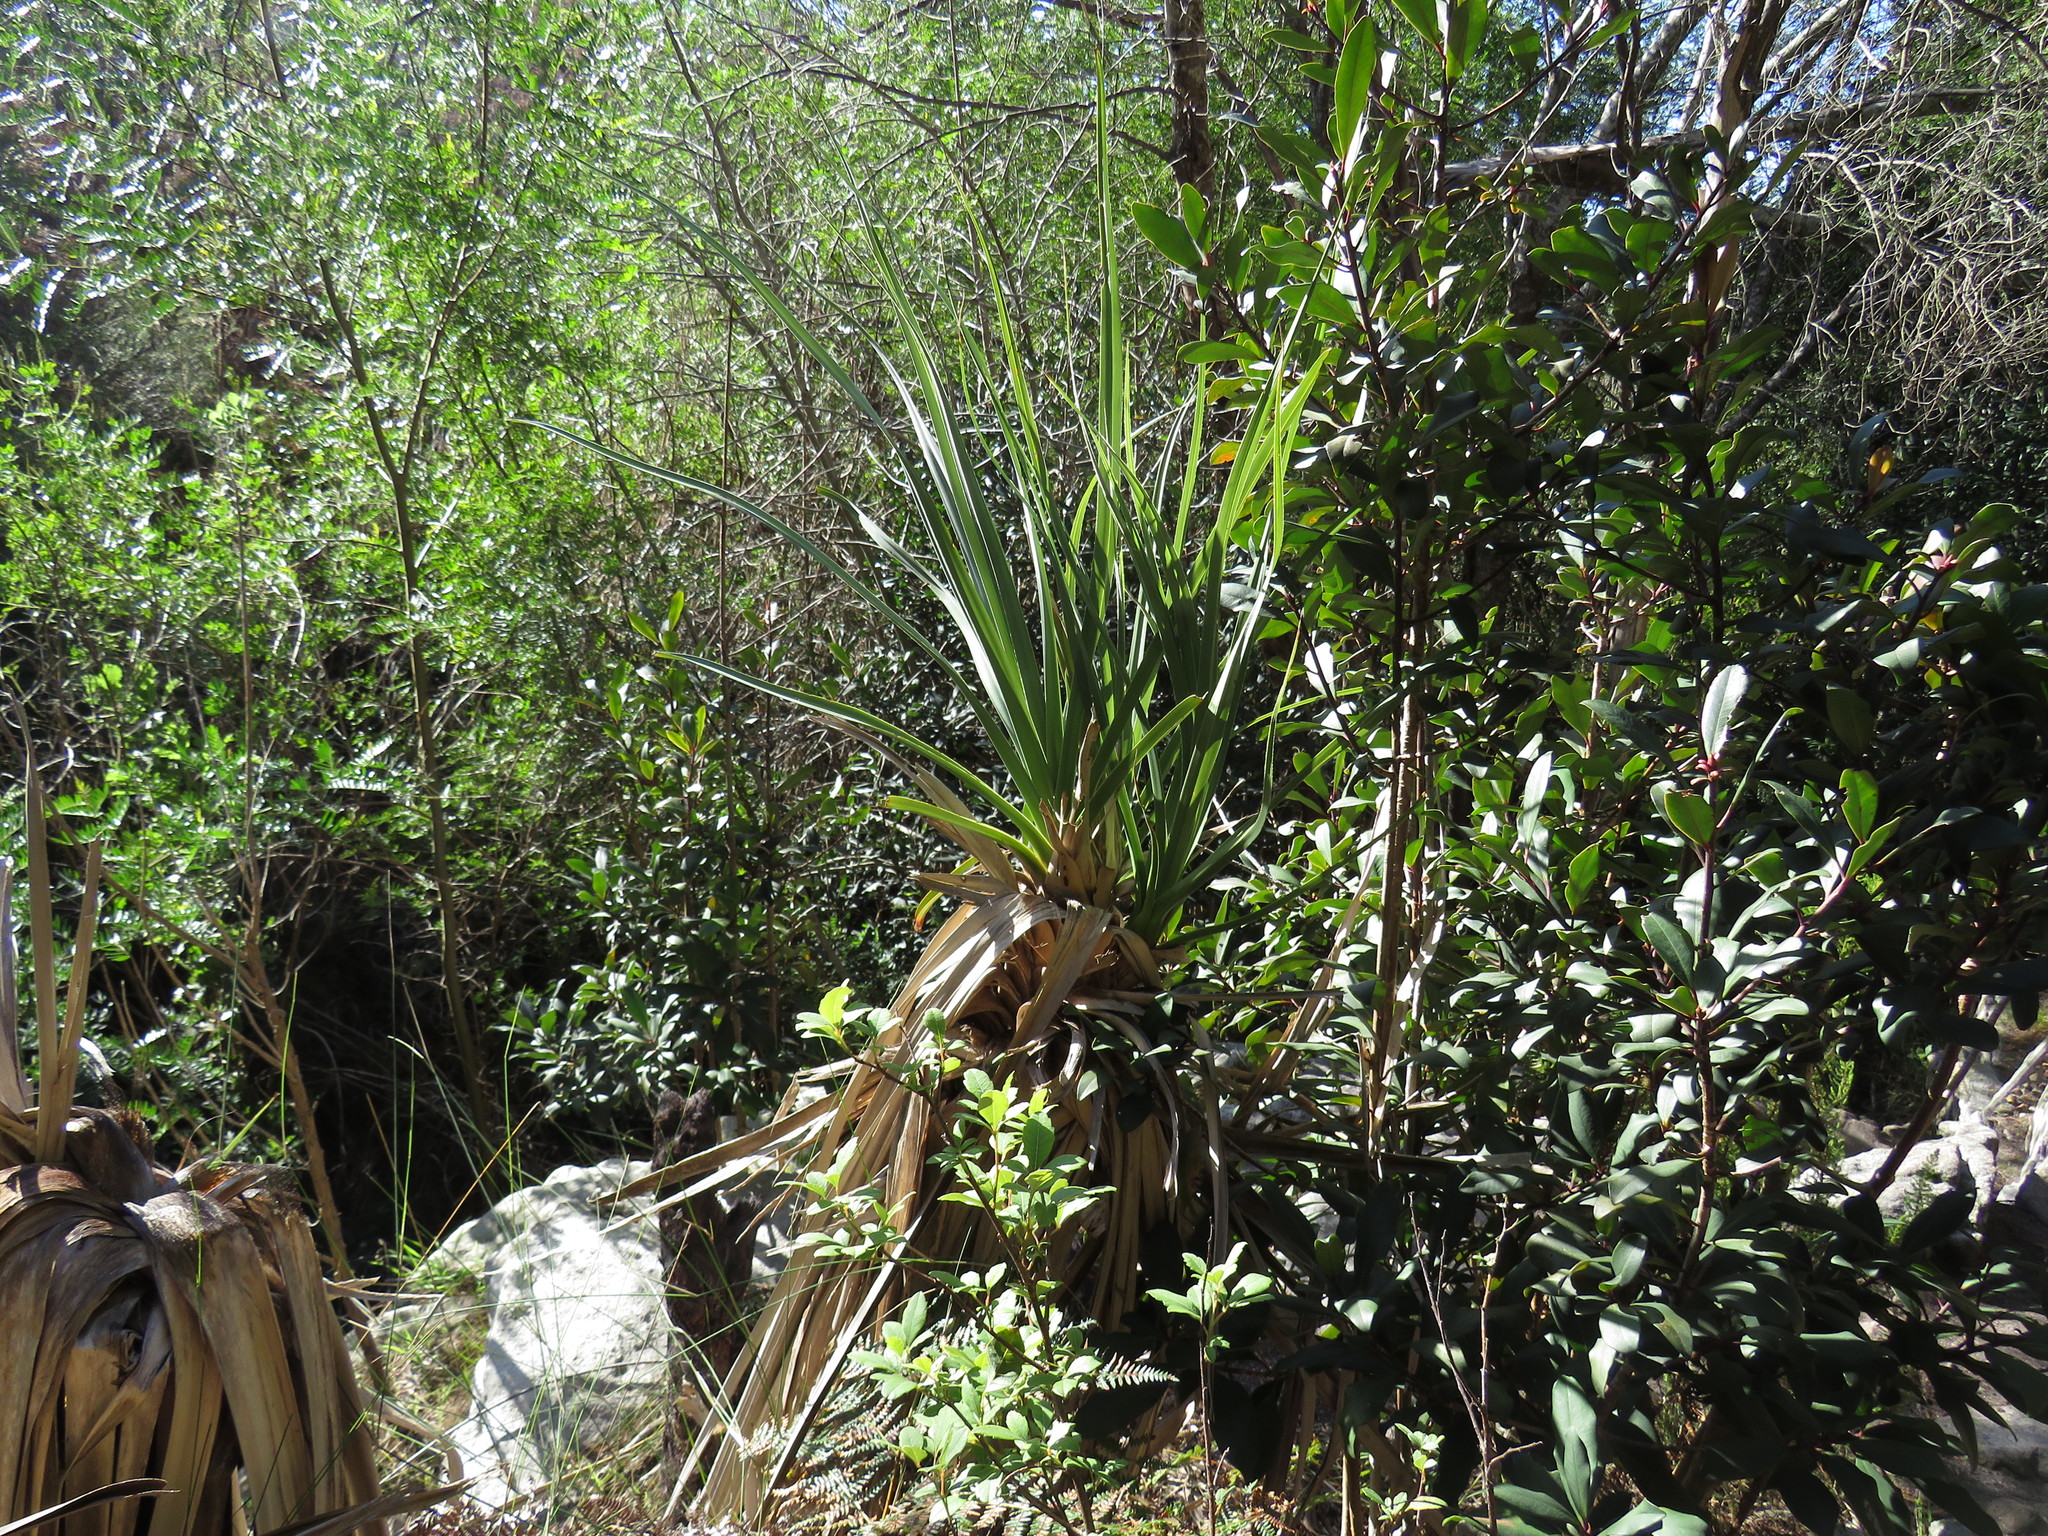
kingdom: Plantae
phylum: Tracheophyta
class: Liliopsida
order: Poales
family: Thurniaceae
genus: Prionium
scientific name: Prionium serratum
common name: Palmiet
